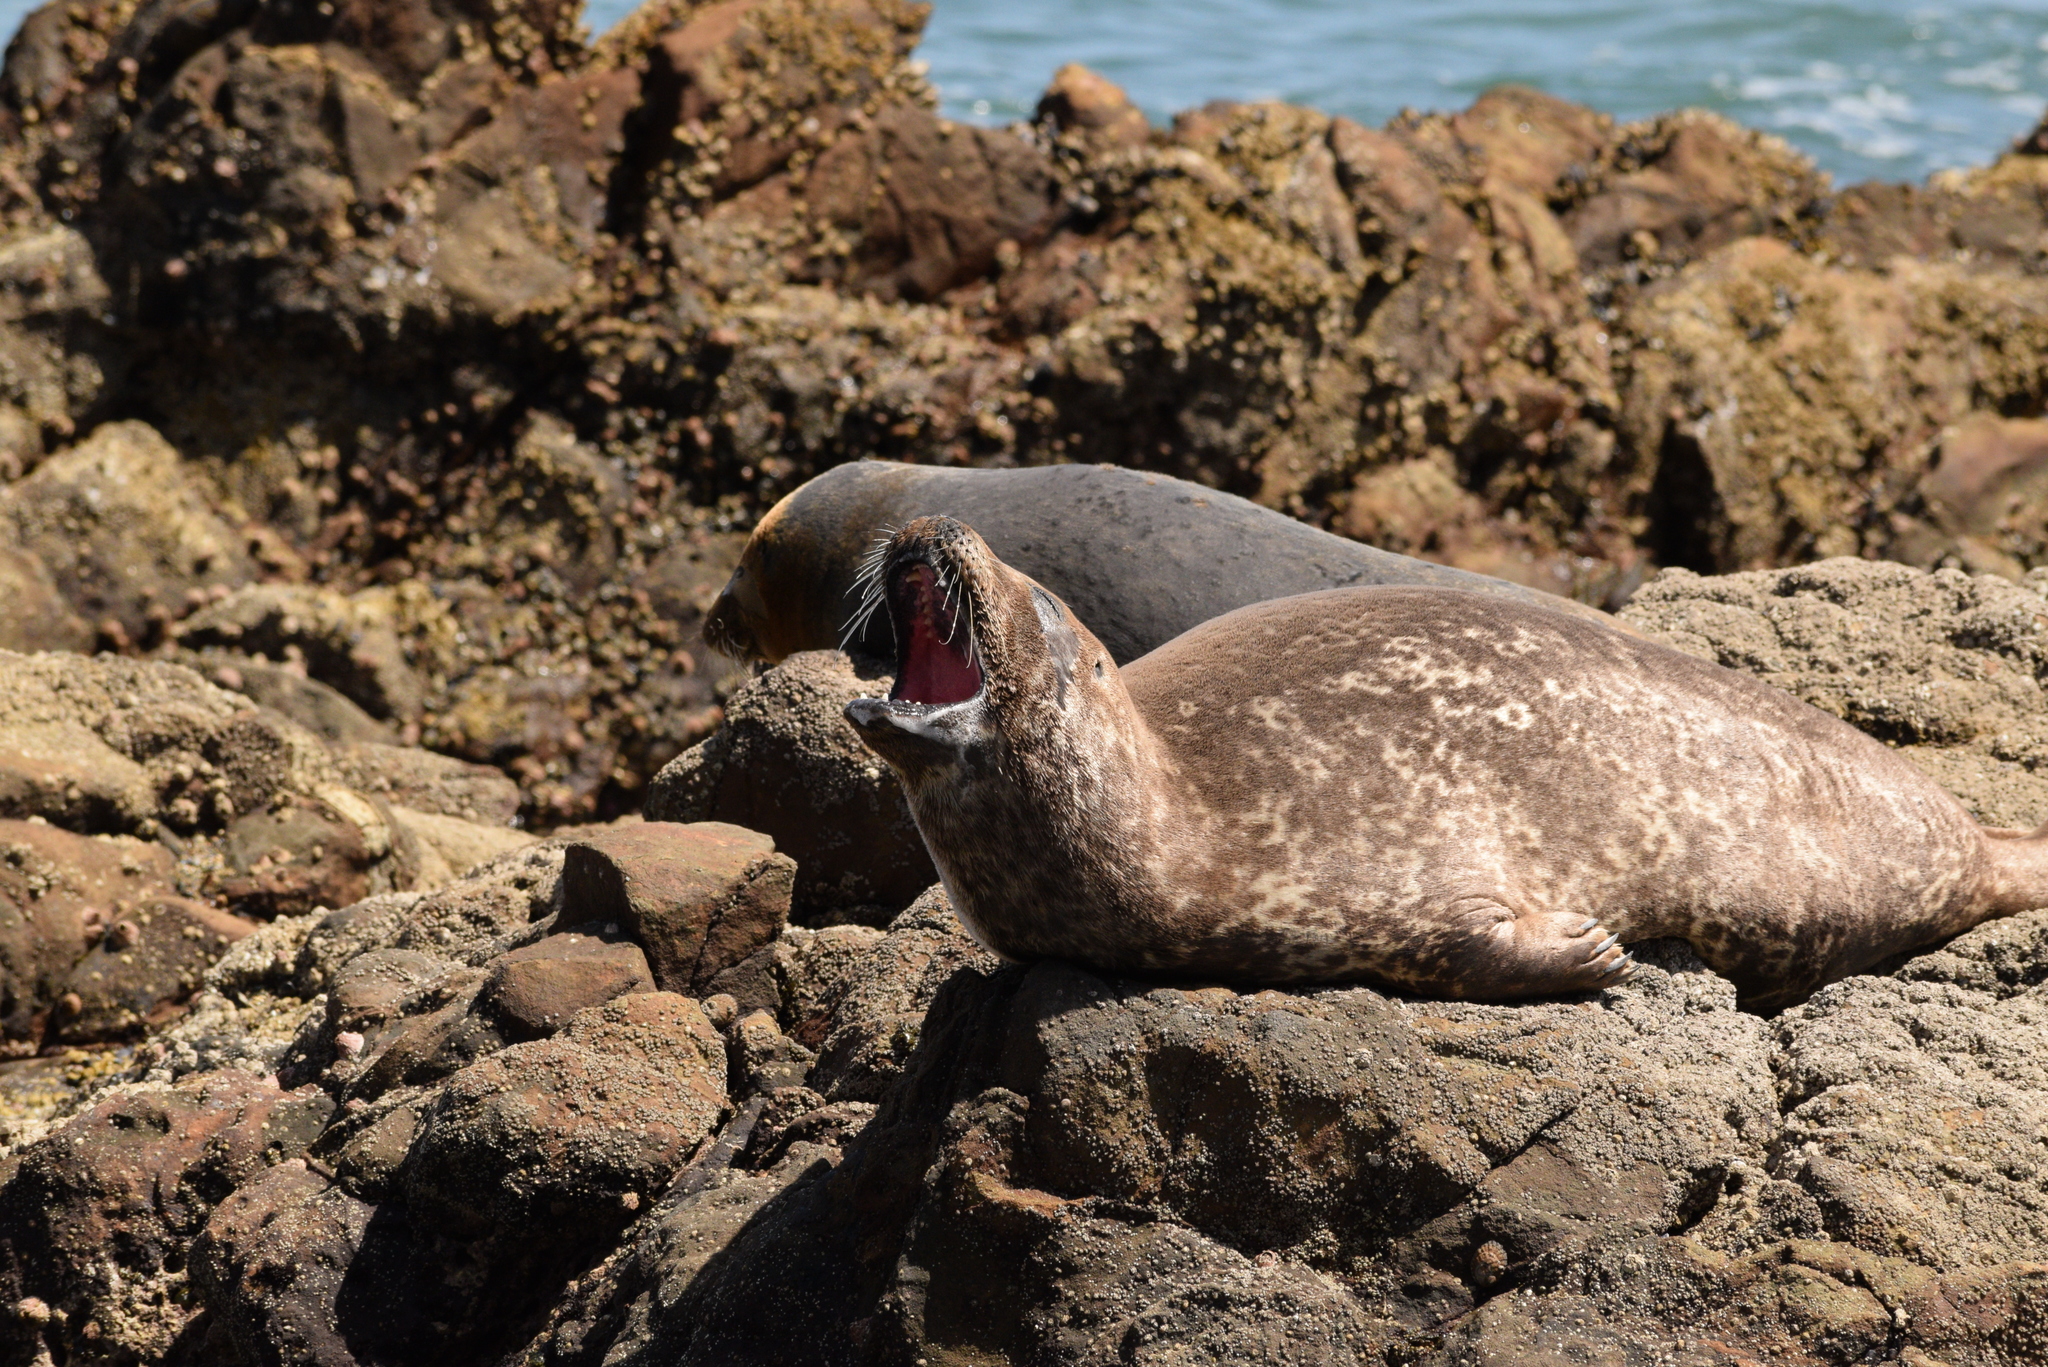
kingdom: Animalia
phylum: Chordata
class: Mammalia
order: Carnivora
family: Phocidae
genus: Phoca
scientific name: Phoca vitulina
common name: Harbor seal
